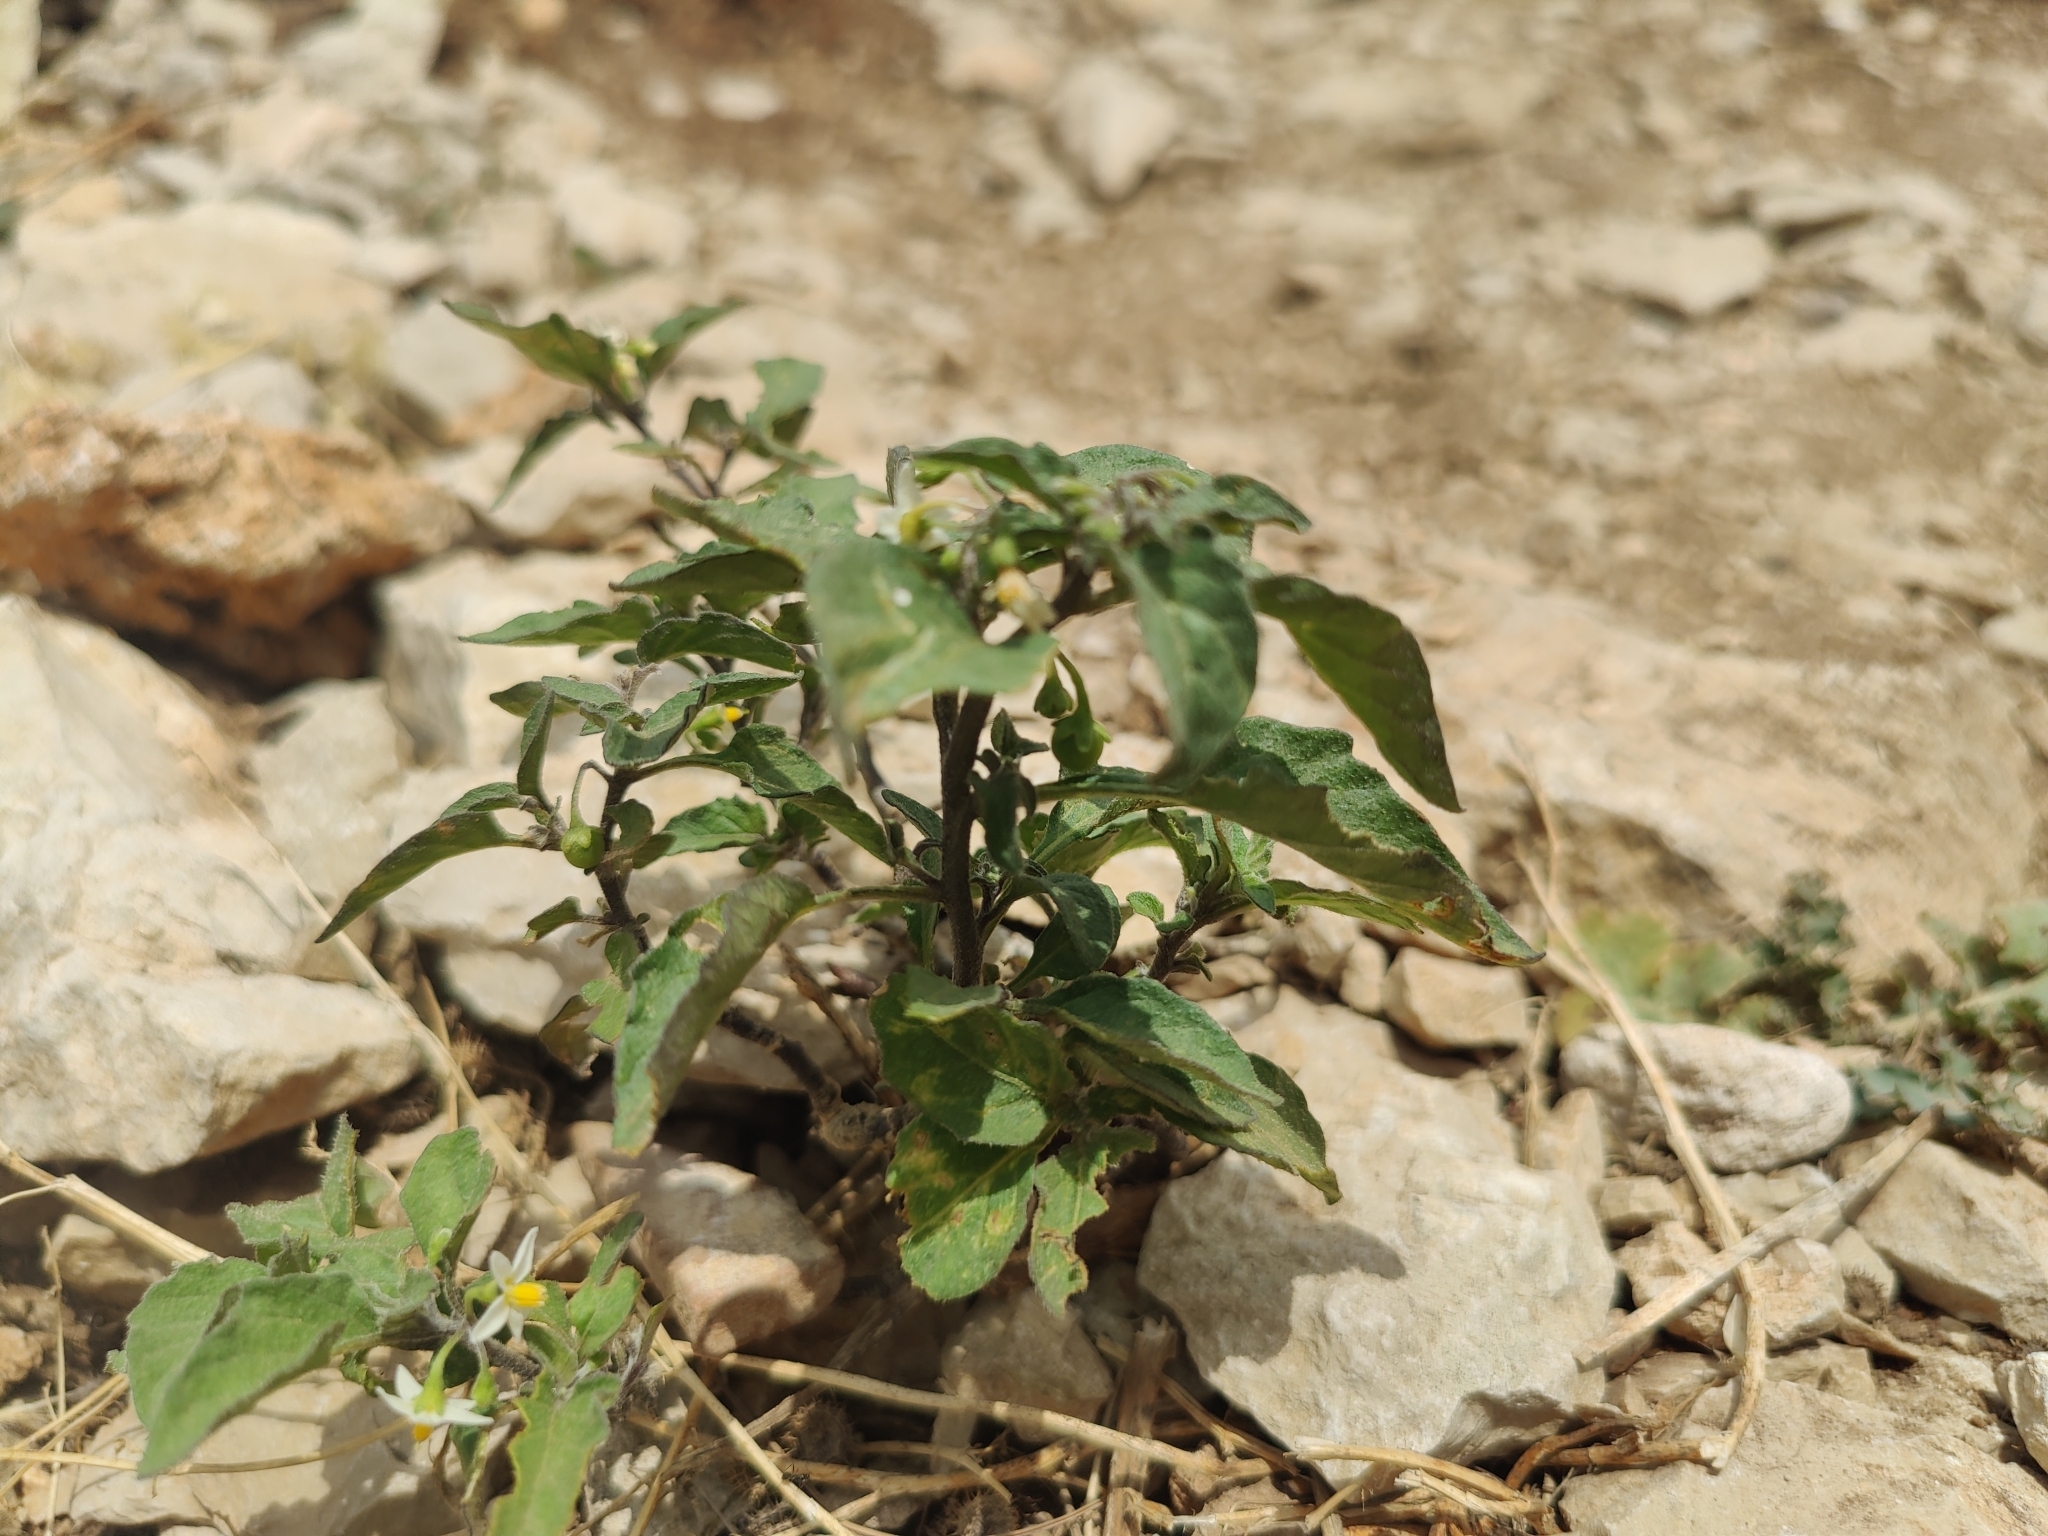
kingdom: Plantae
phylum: Tracheophyta
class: Magnoliopsida
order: Solanales
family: Solanaceae
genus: Solanum
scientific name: Solanum nigrum
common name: Black nightshade
